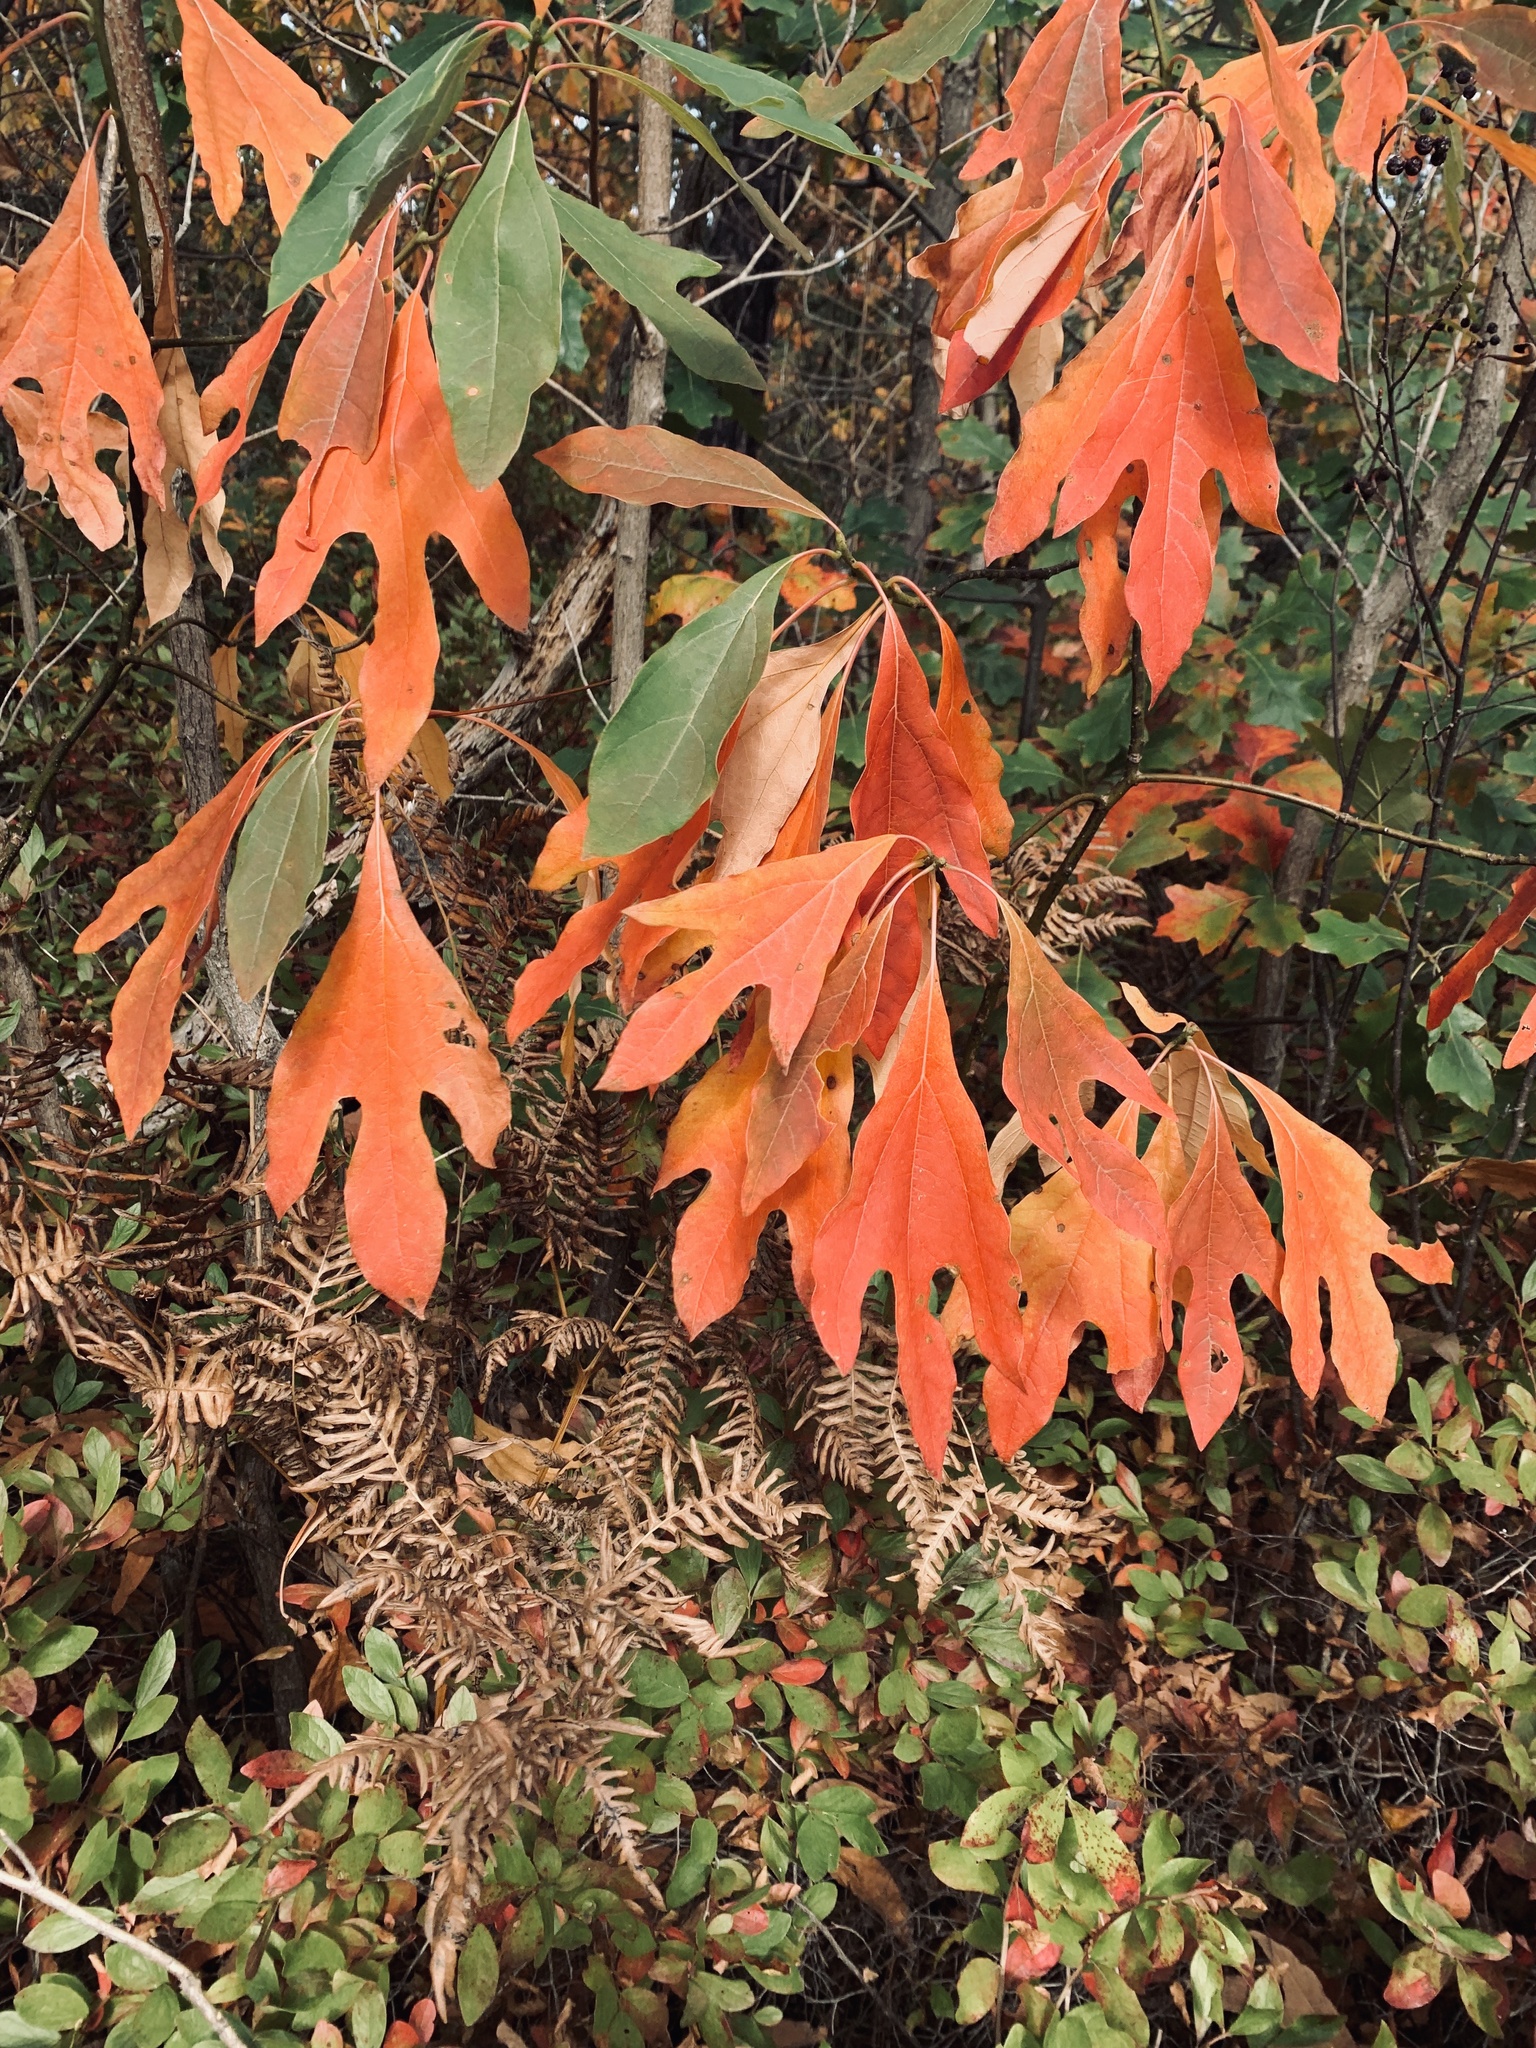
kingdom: Plantae
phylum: Tracheophyta
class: Magnoliopsida
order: Laurales
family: Lauraceae
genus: Sassafras
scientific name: Sassafras albidum
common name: Sassafras
